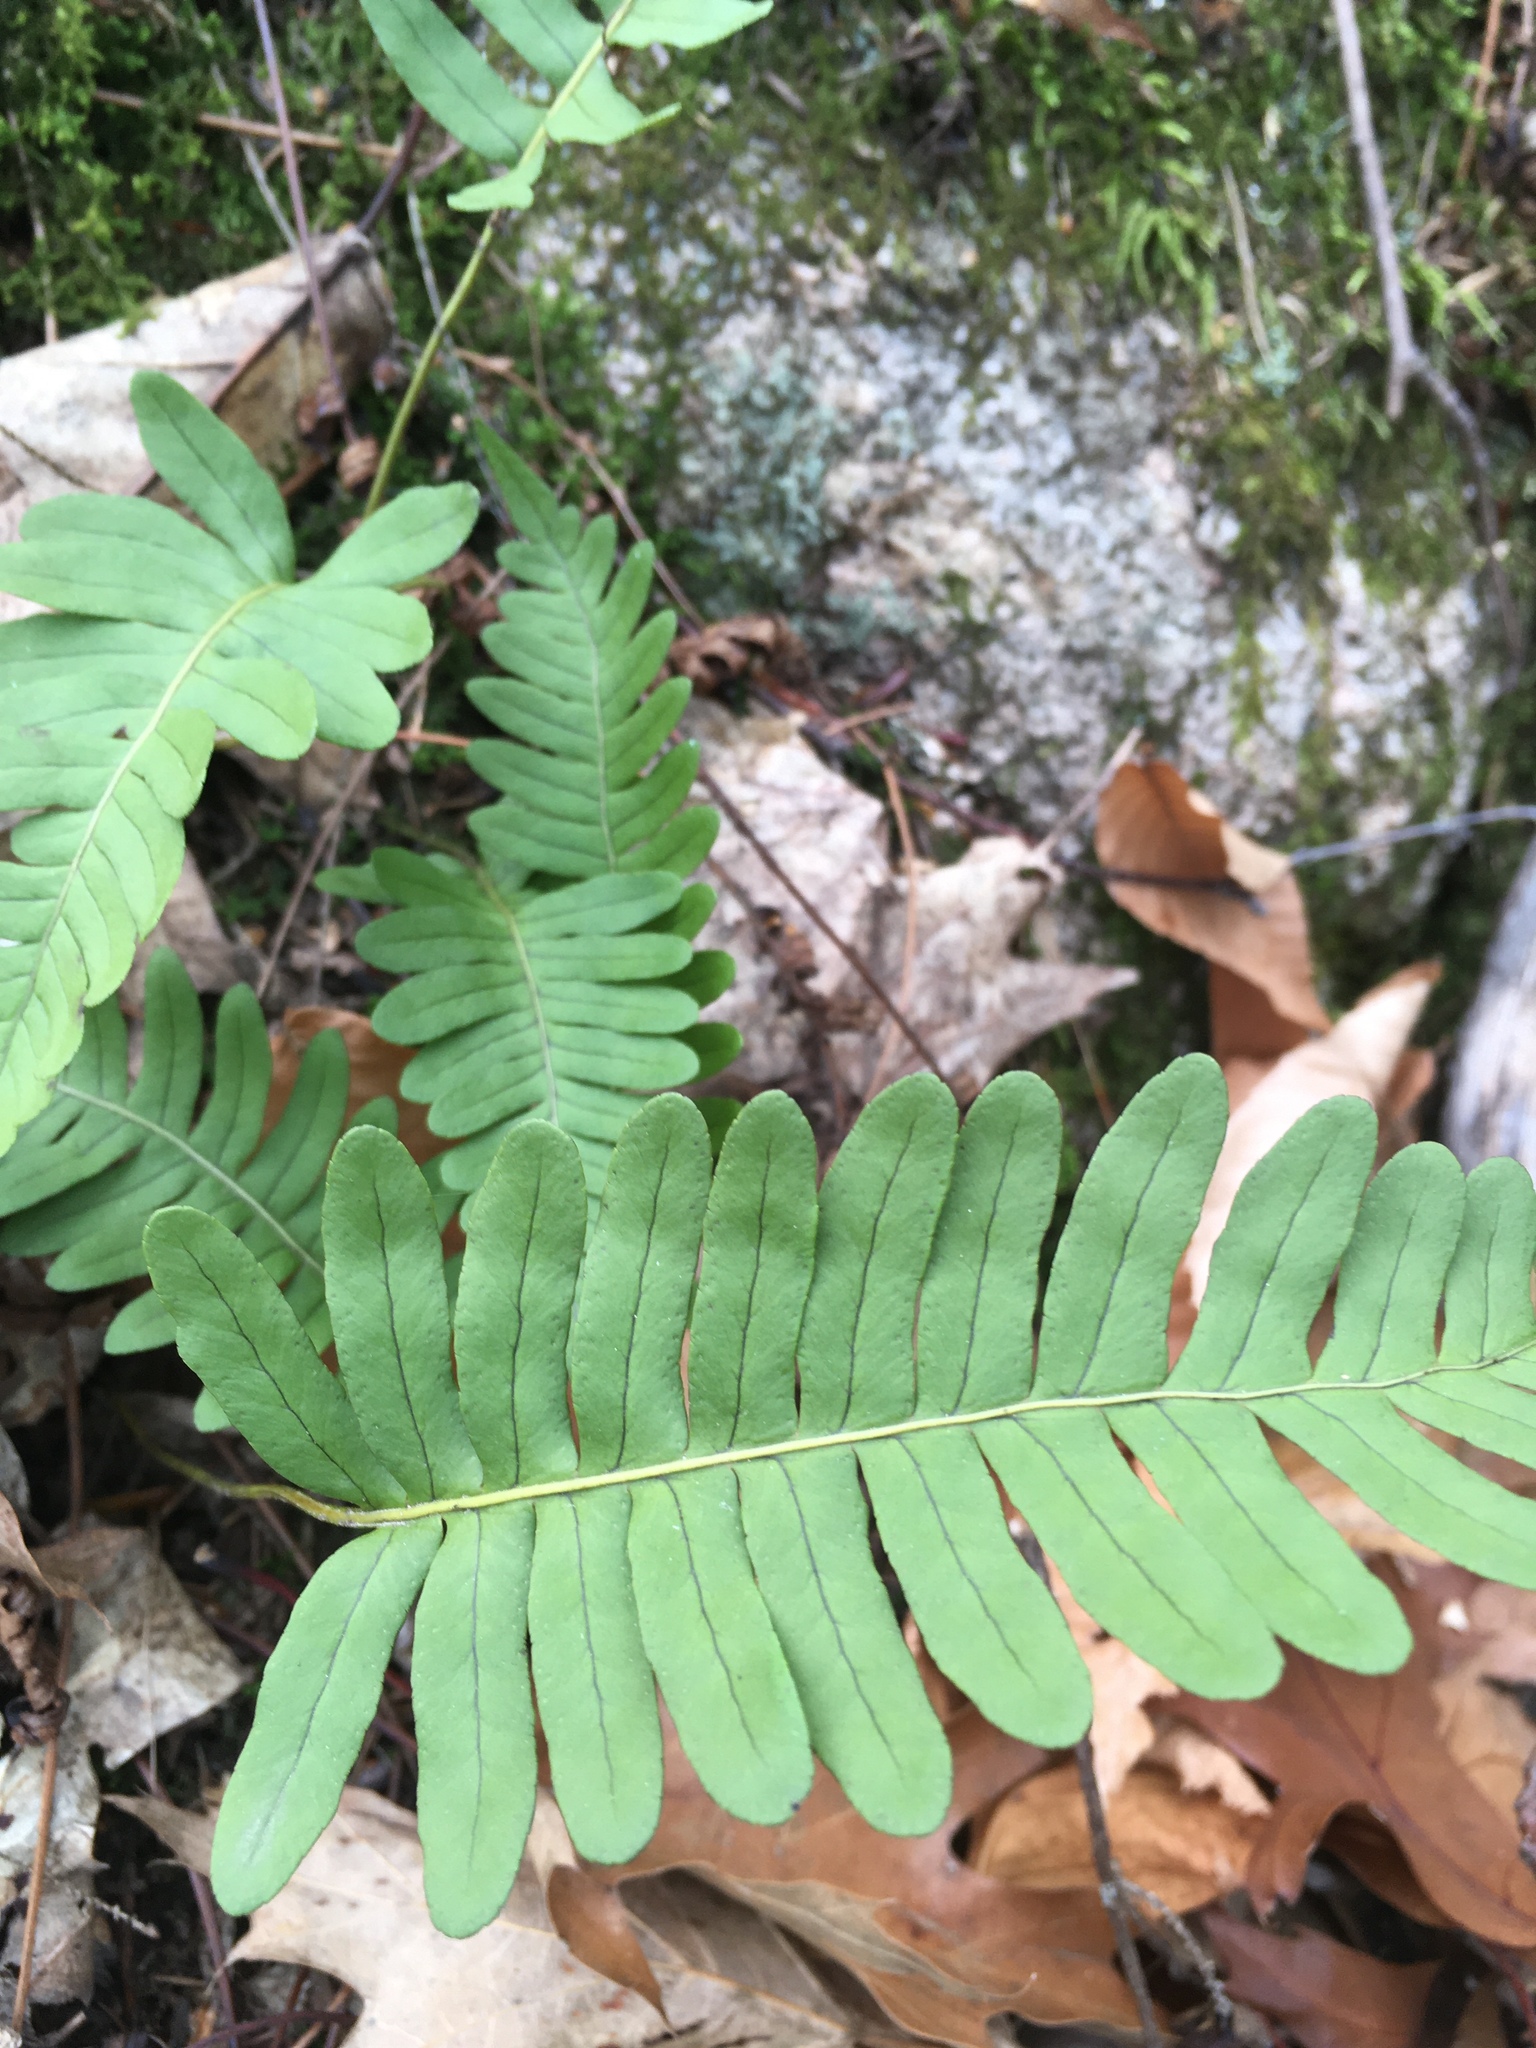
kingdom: Plantae
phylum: Tracheophyta
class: Polypodiopsida
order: Polypodiales
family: Polypodiaceae
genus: Polypodium
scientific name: Polypodium virginianum
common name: American wall fern
